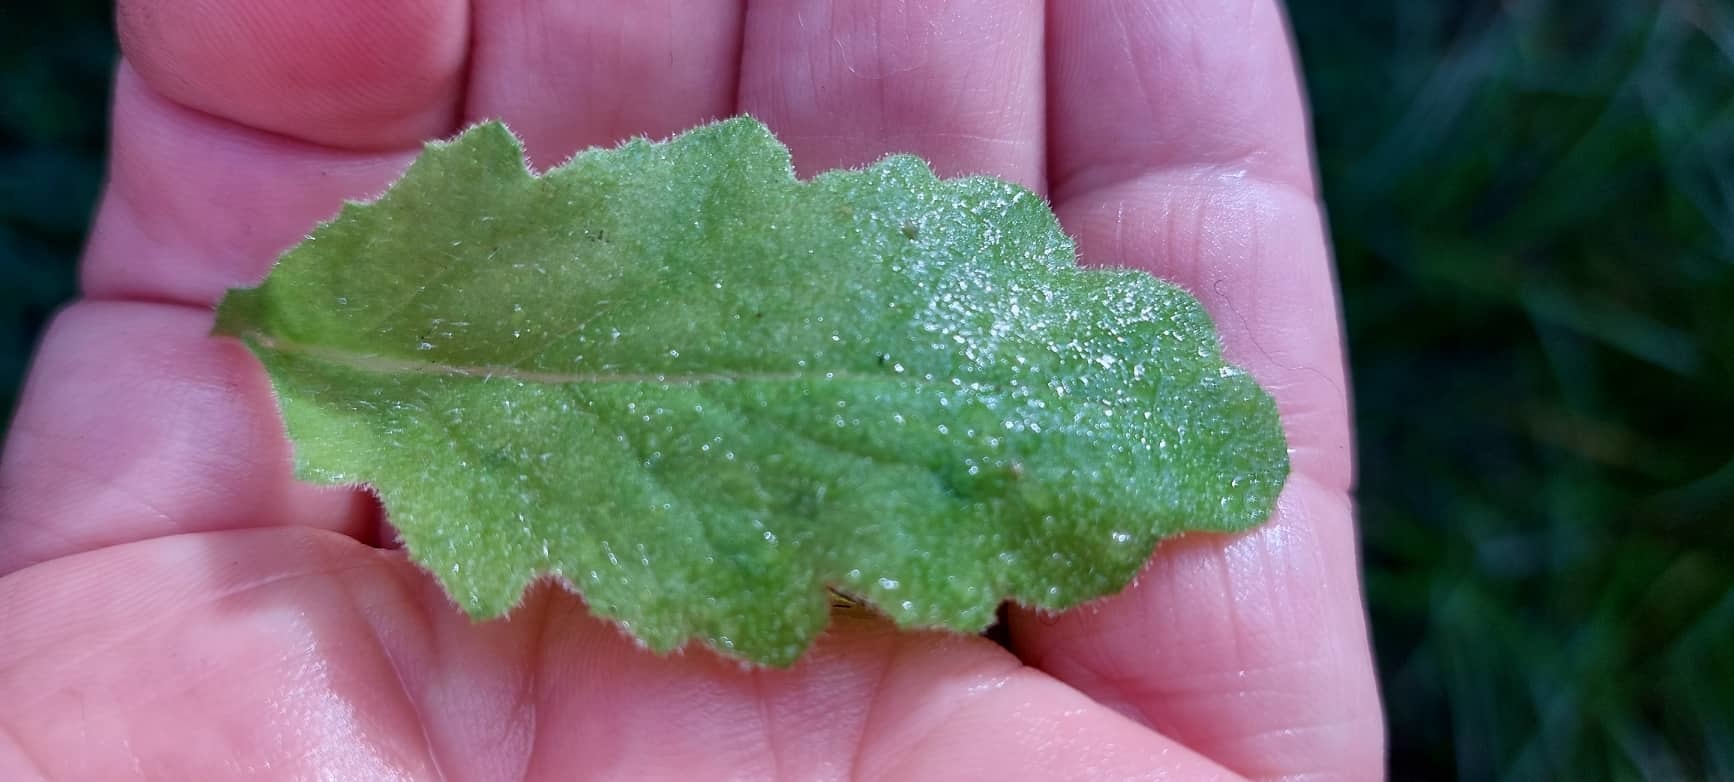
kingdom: Plantae
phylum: Tracheophyta
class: Magnoliopsida
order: Asterales
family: Asteraceae
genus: Senecio
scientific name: Senecio scaberulus
